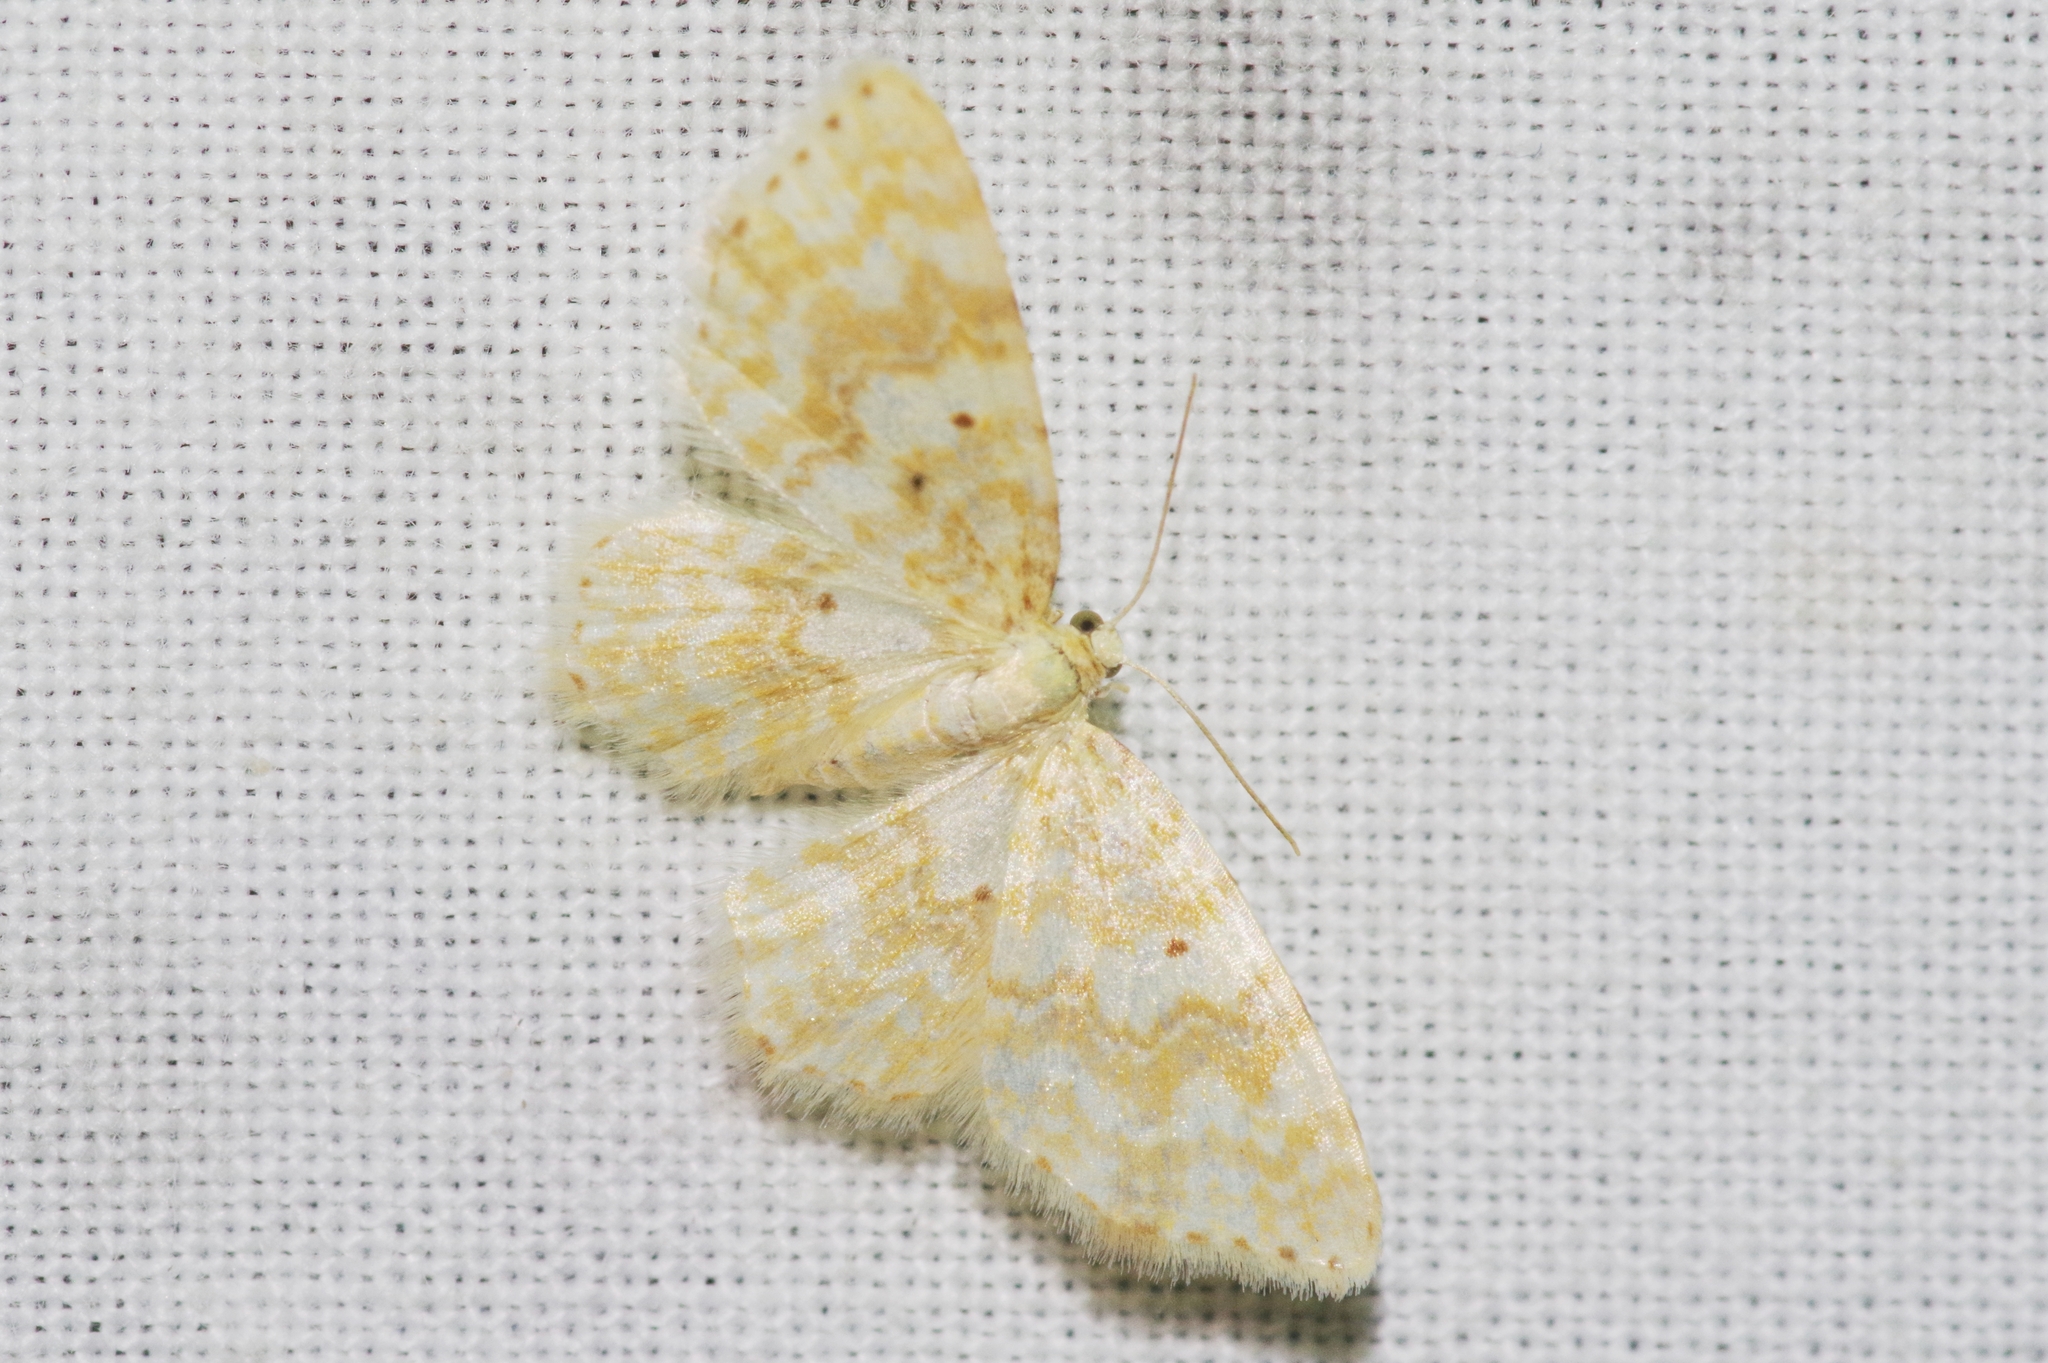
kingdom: Animalia
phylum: Arthropoda
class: Insecta
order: Lepidoptera
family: Geometridae
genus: Hydrelia
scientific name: Hydrelia flammeolaria
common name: Small yellow wave
